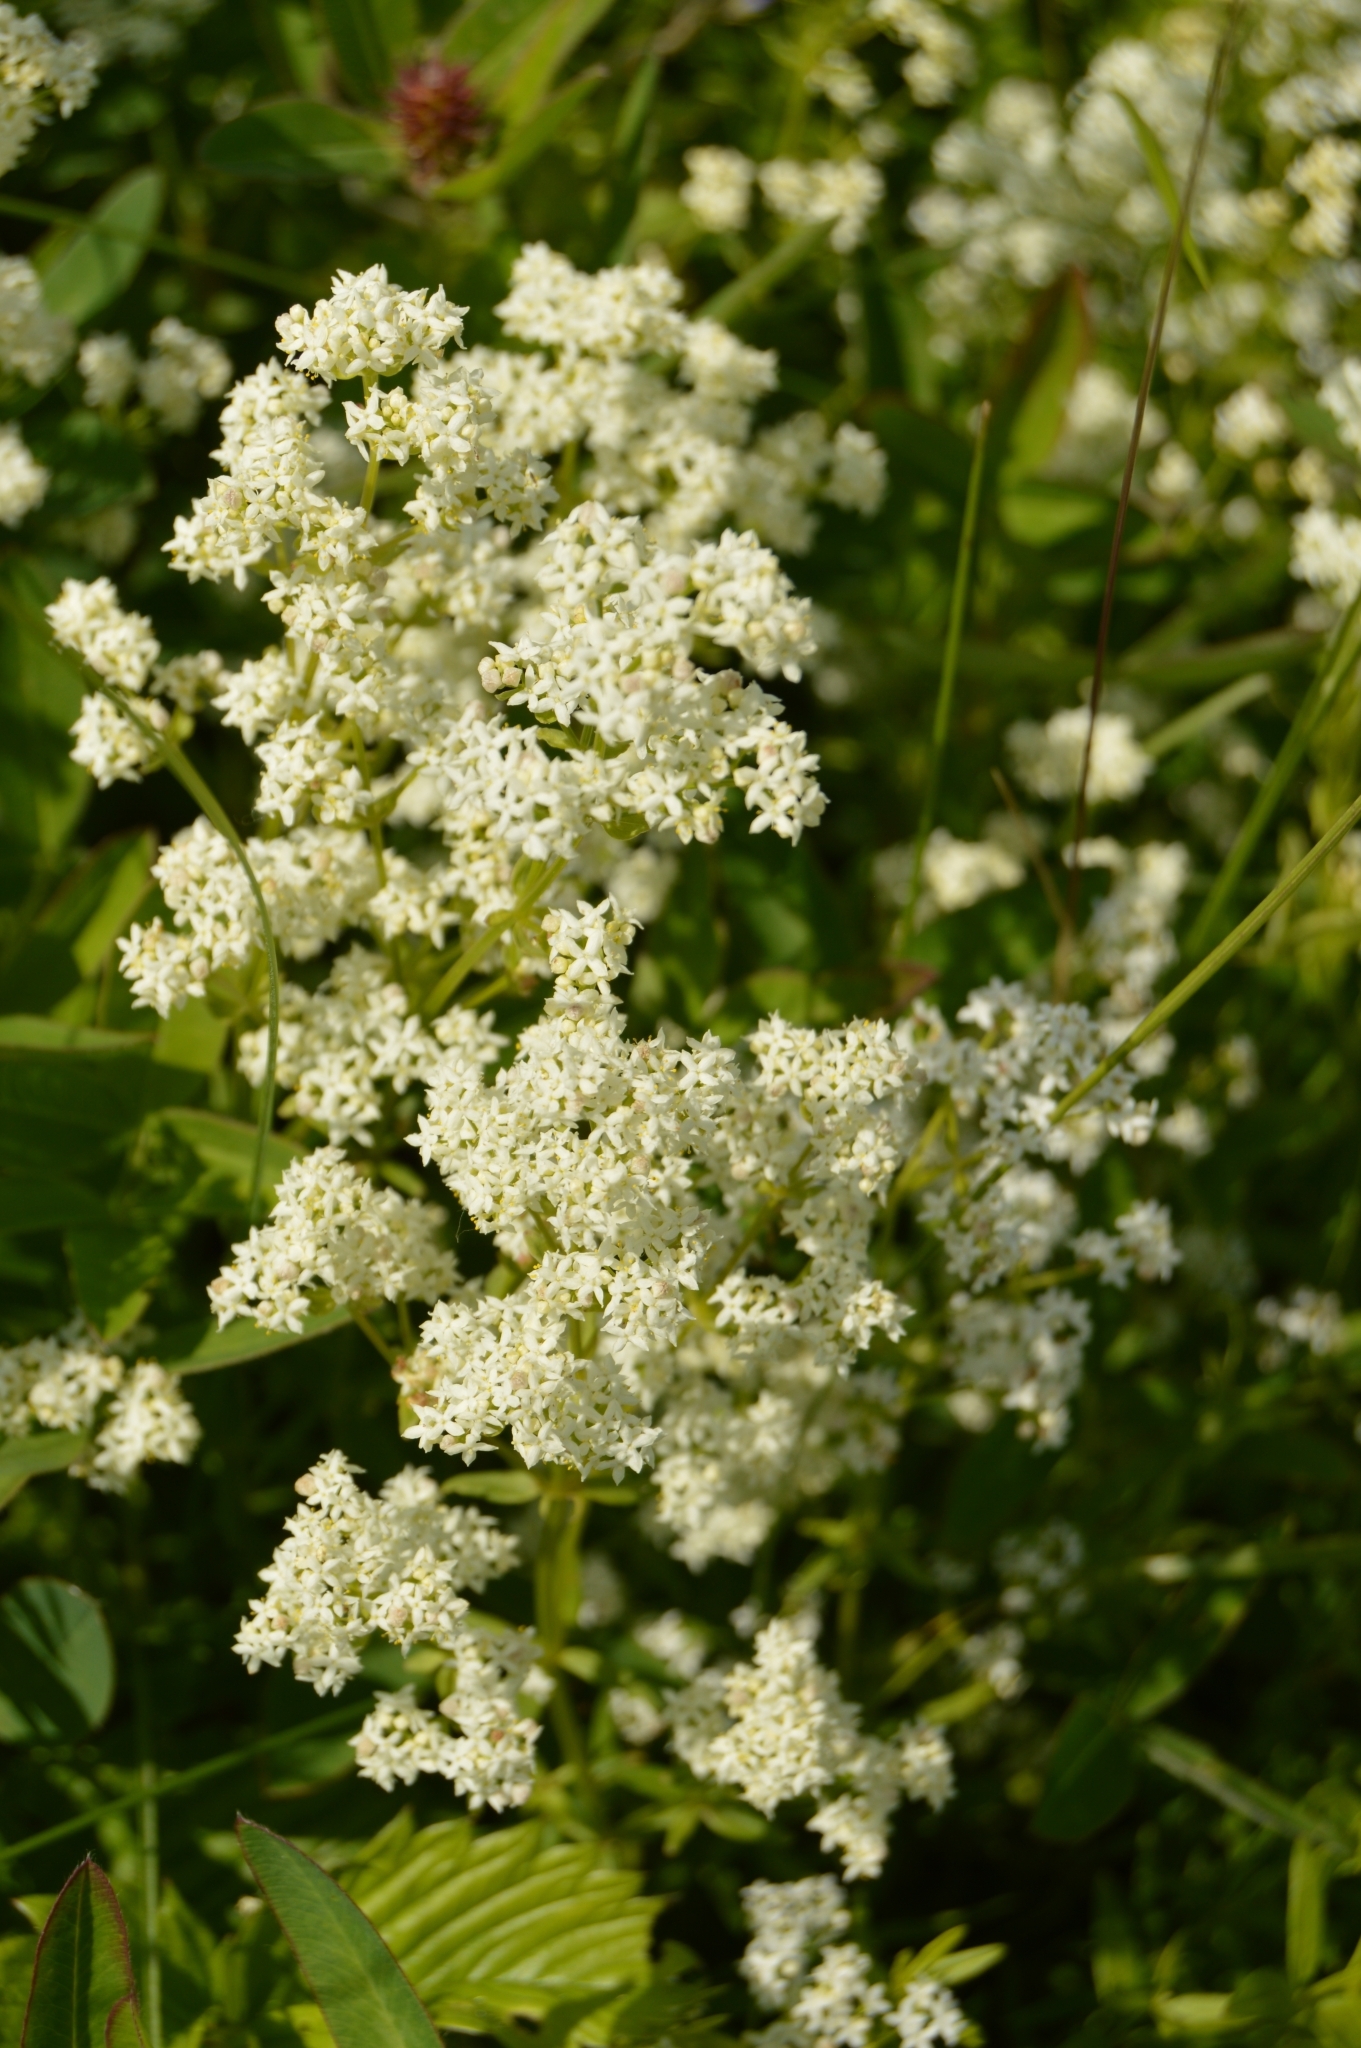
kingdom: Plantae
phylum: Tracheophyta
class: Magnoliopsida
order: Gentianales
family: Rubiaceae
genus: Galium
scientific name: Galium boreale
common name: Northern bedstraw
